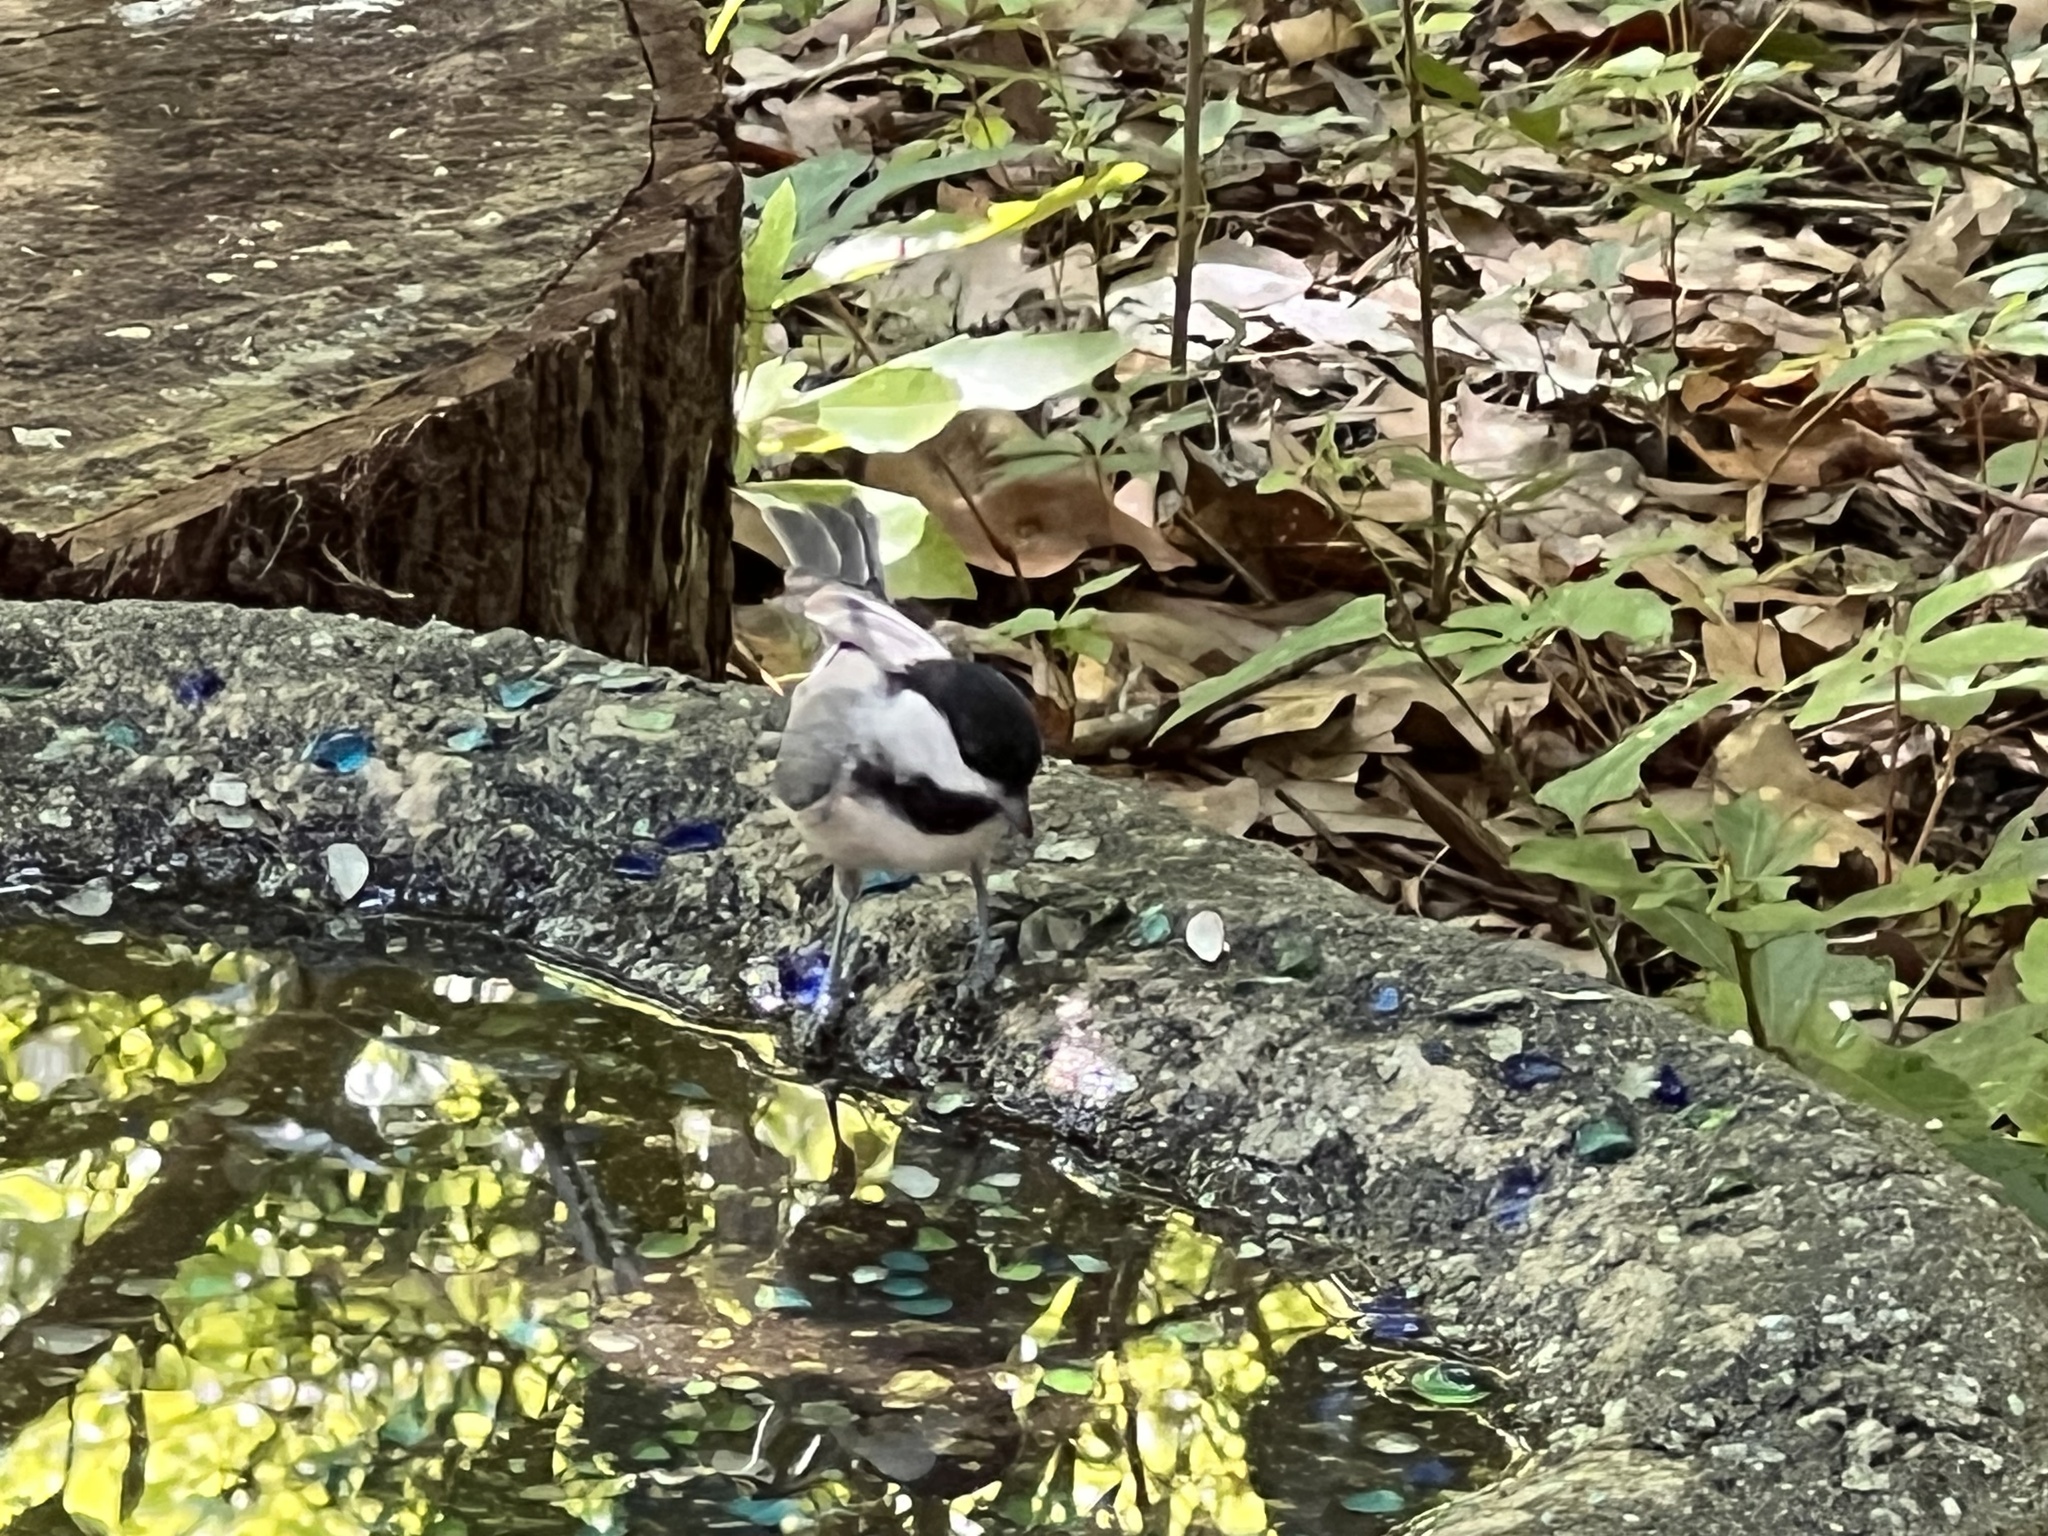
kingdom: Animalia
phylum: Chordata
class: Aves
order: Passeriformes
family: Paridae
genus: Poecile
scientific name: Poecile carolinensis
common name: Carolina chickadee
